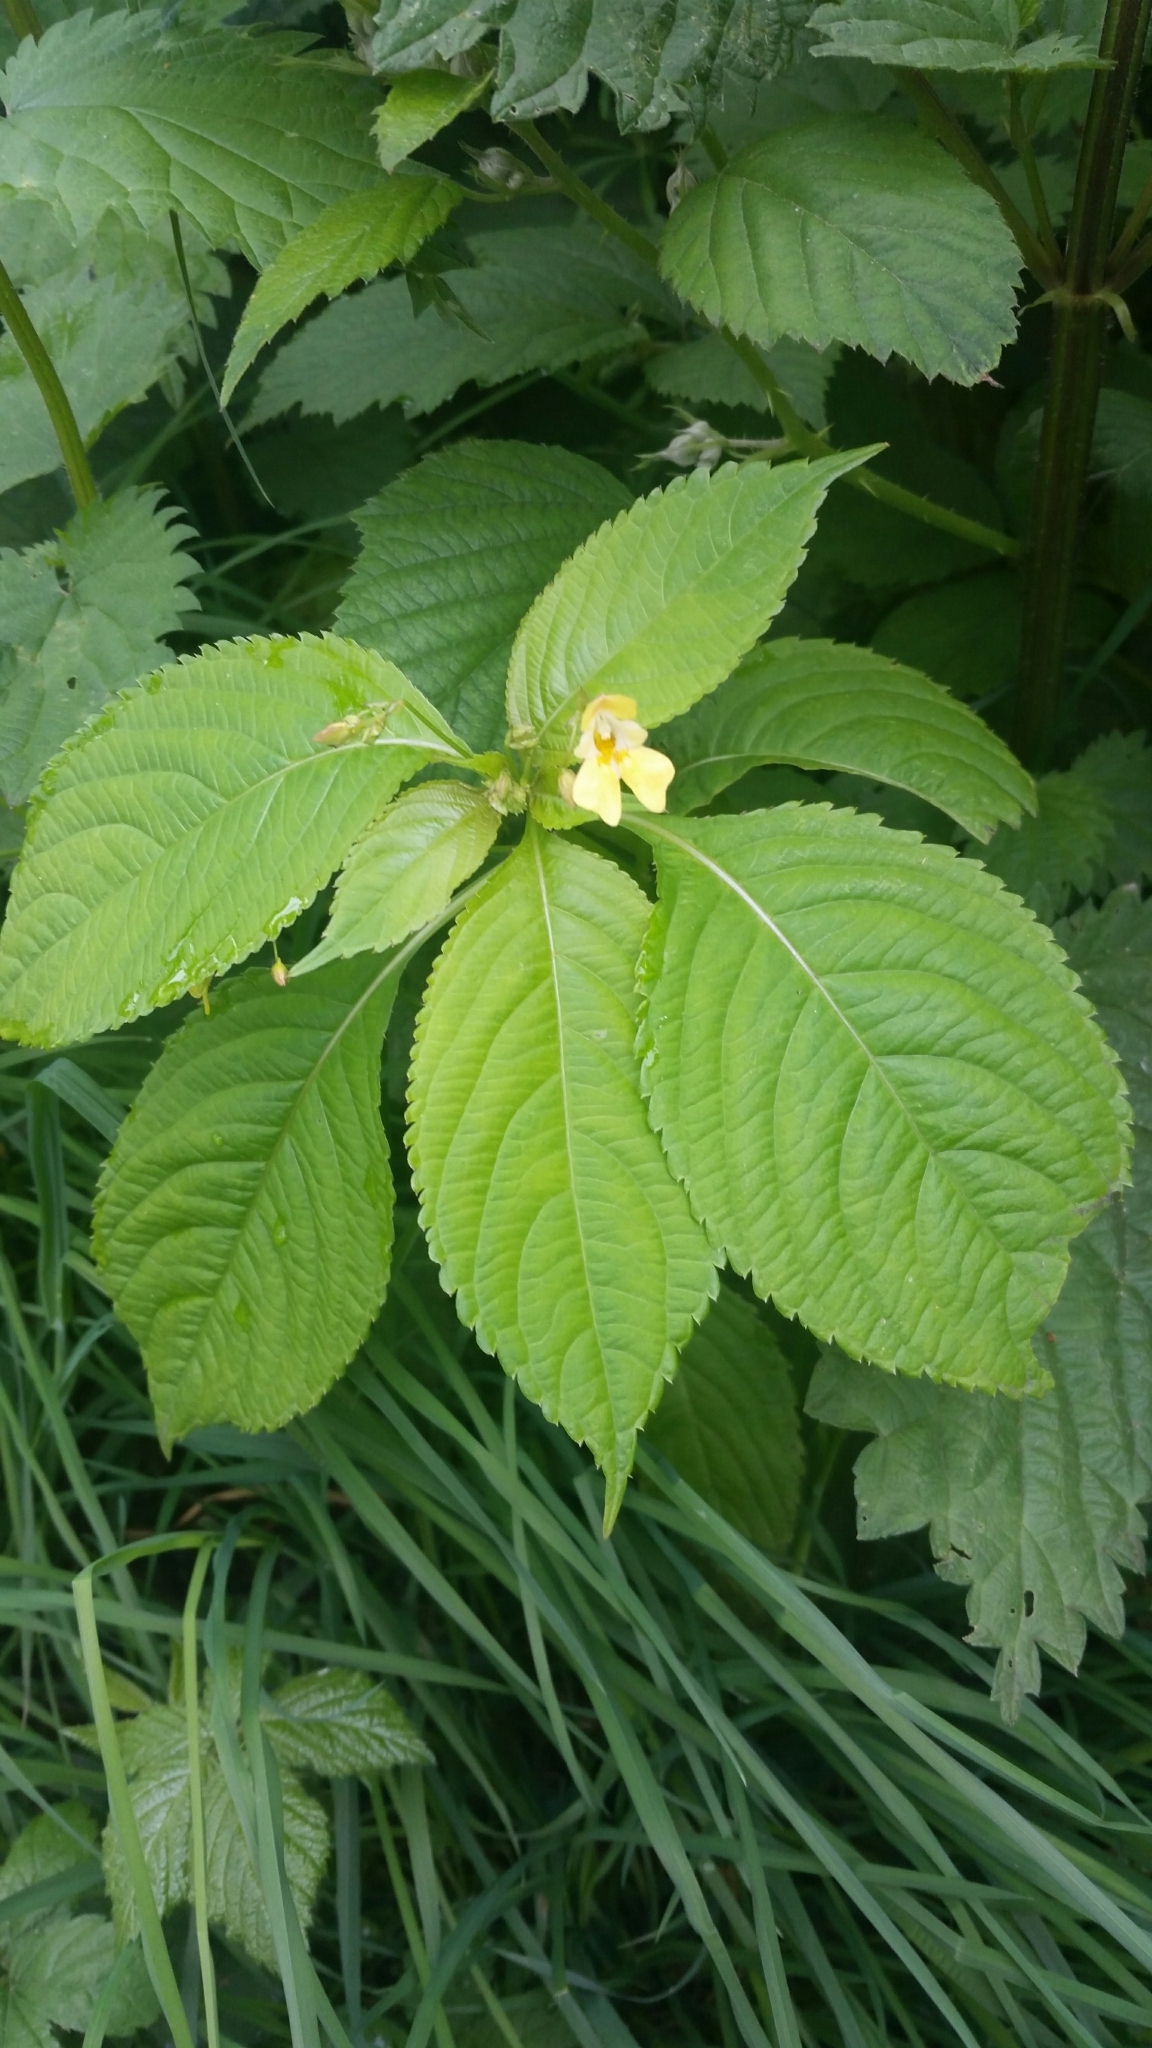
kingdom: Plantae
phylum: Tracheophyta
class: Magnoliopsida
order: Ericales
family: Balsaminaceae
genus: Impatiens
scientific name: Impatiens parviflora
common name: Small balsam
